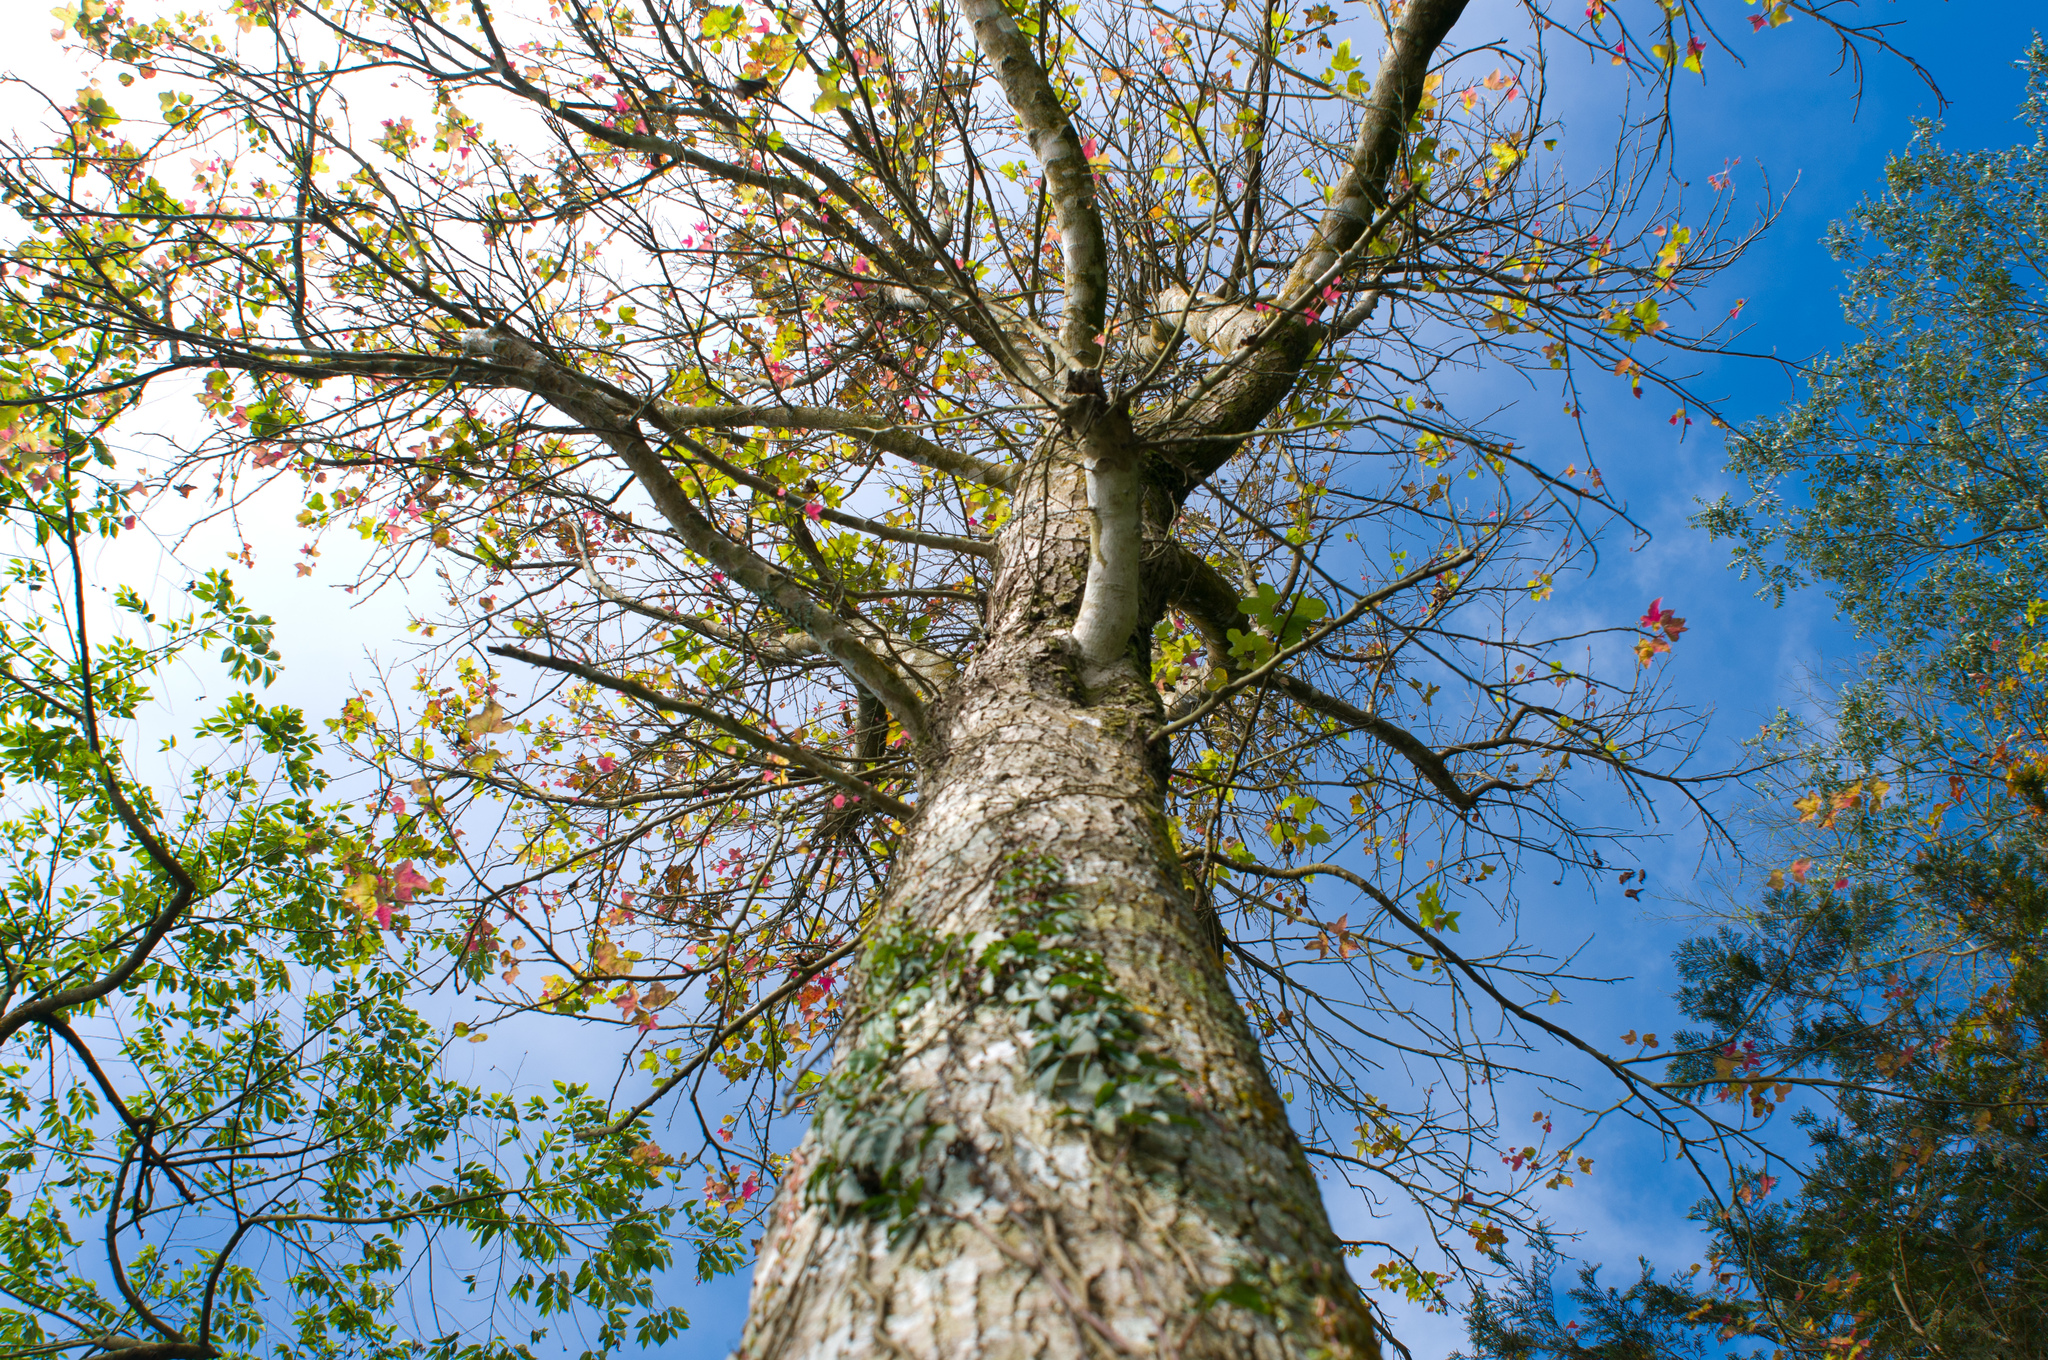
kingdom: Plantae
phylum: Tracheophyta
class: Magnoliopsida
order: Saxifragales
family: Altingiaceae
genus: Liquidambar
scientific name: Liquidambar formosana
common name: Chinese sweet gum
